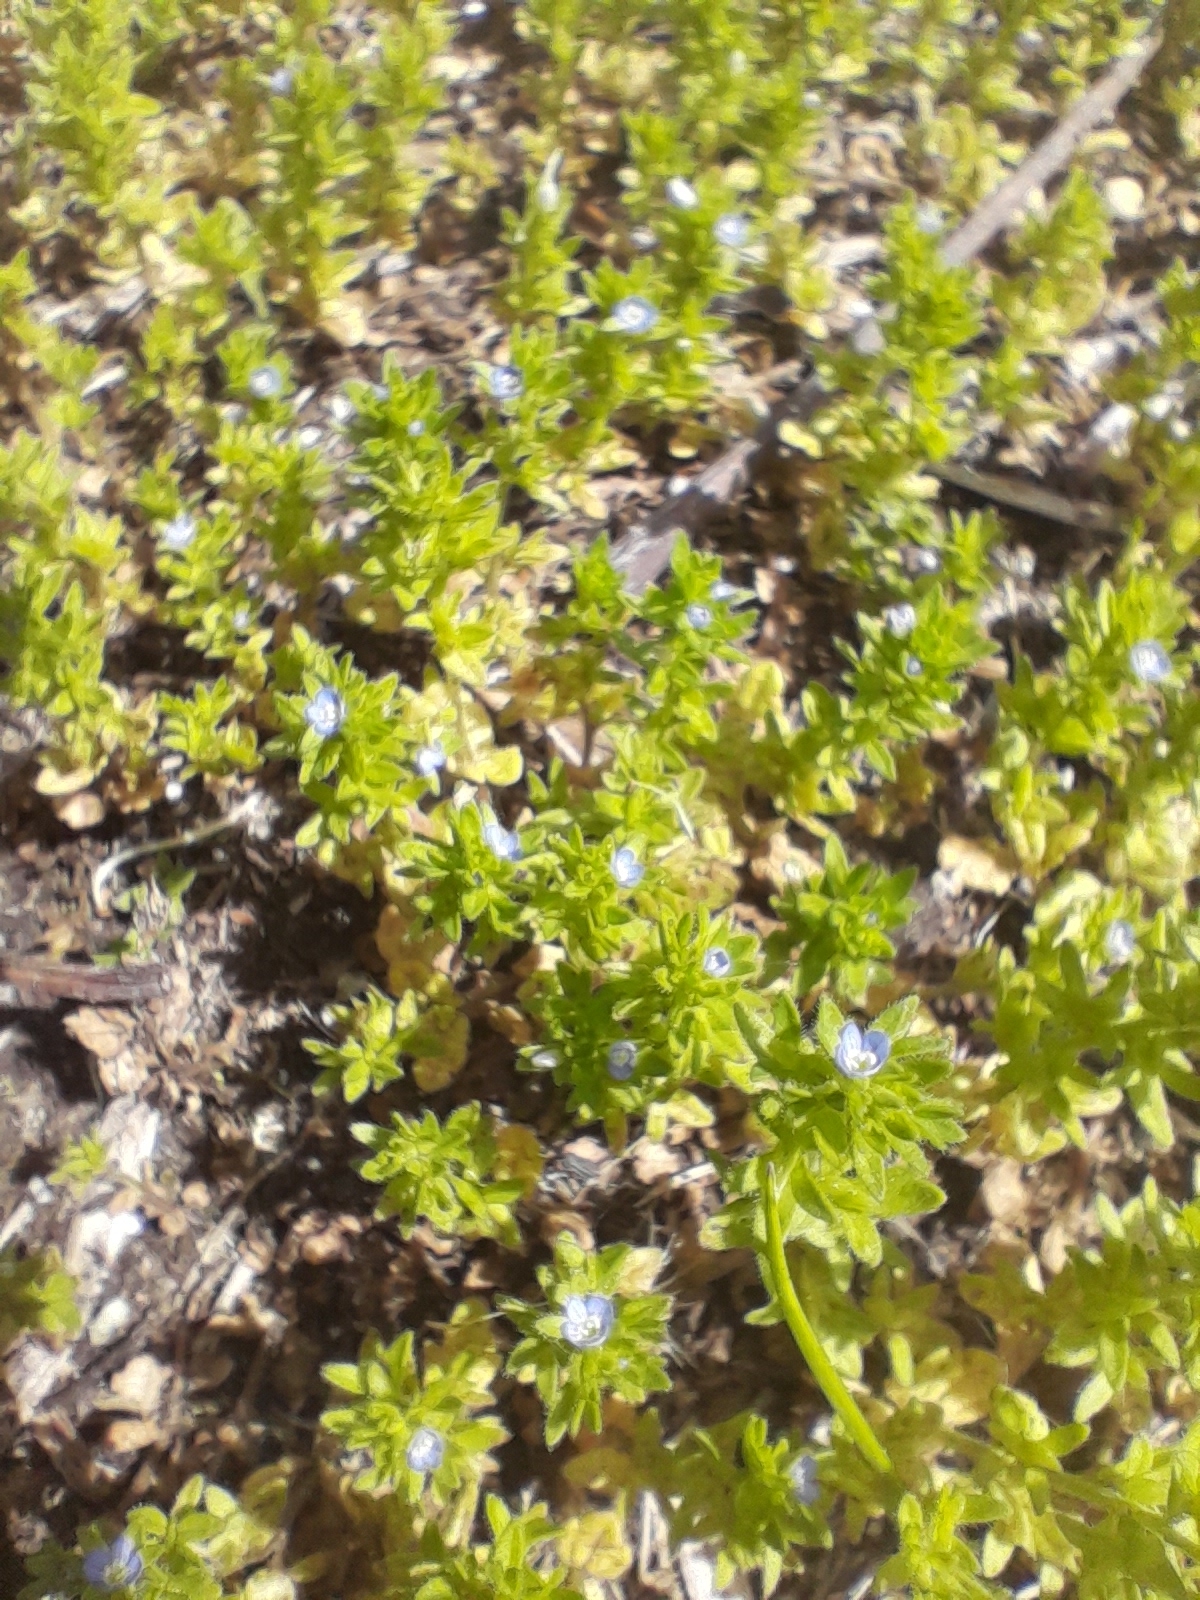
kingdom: Plantae
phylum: Tracheophyta
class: Magnoliopsida
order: Lamiales
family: Plantaginaceae
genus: Veronica
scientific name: Veronica arvensis
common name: Corn speedwell
